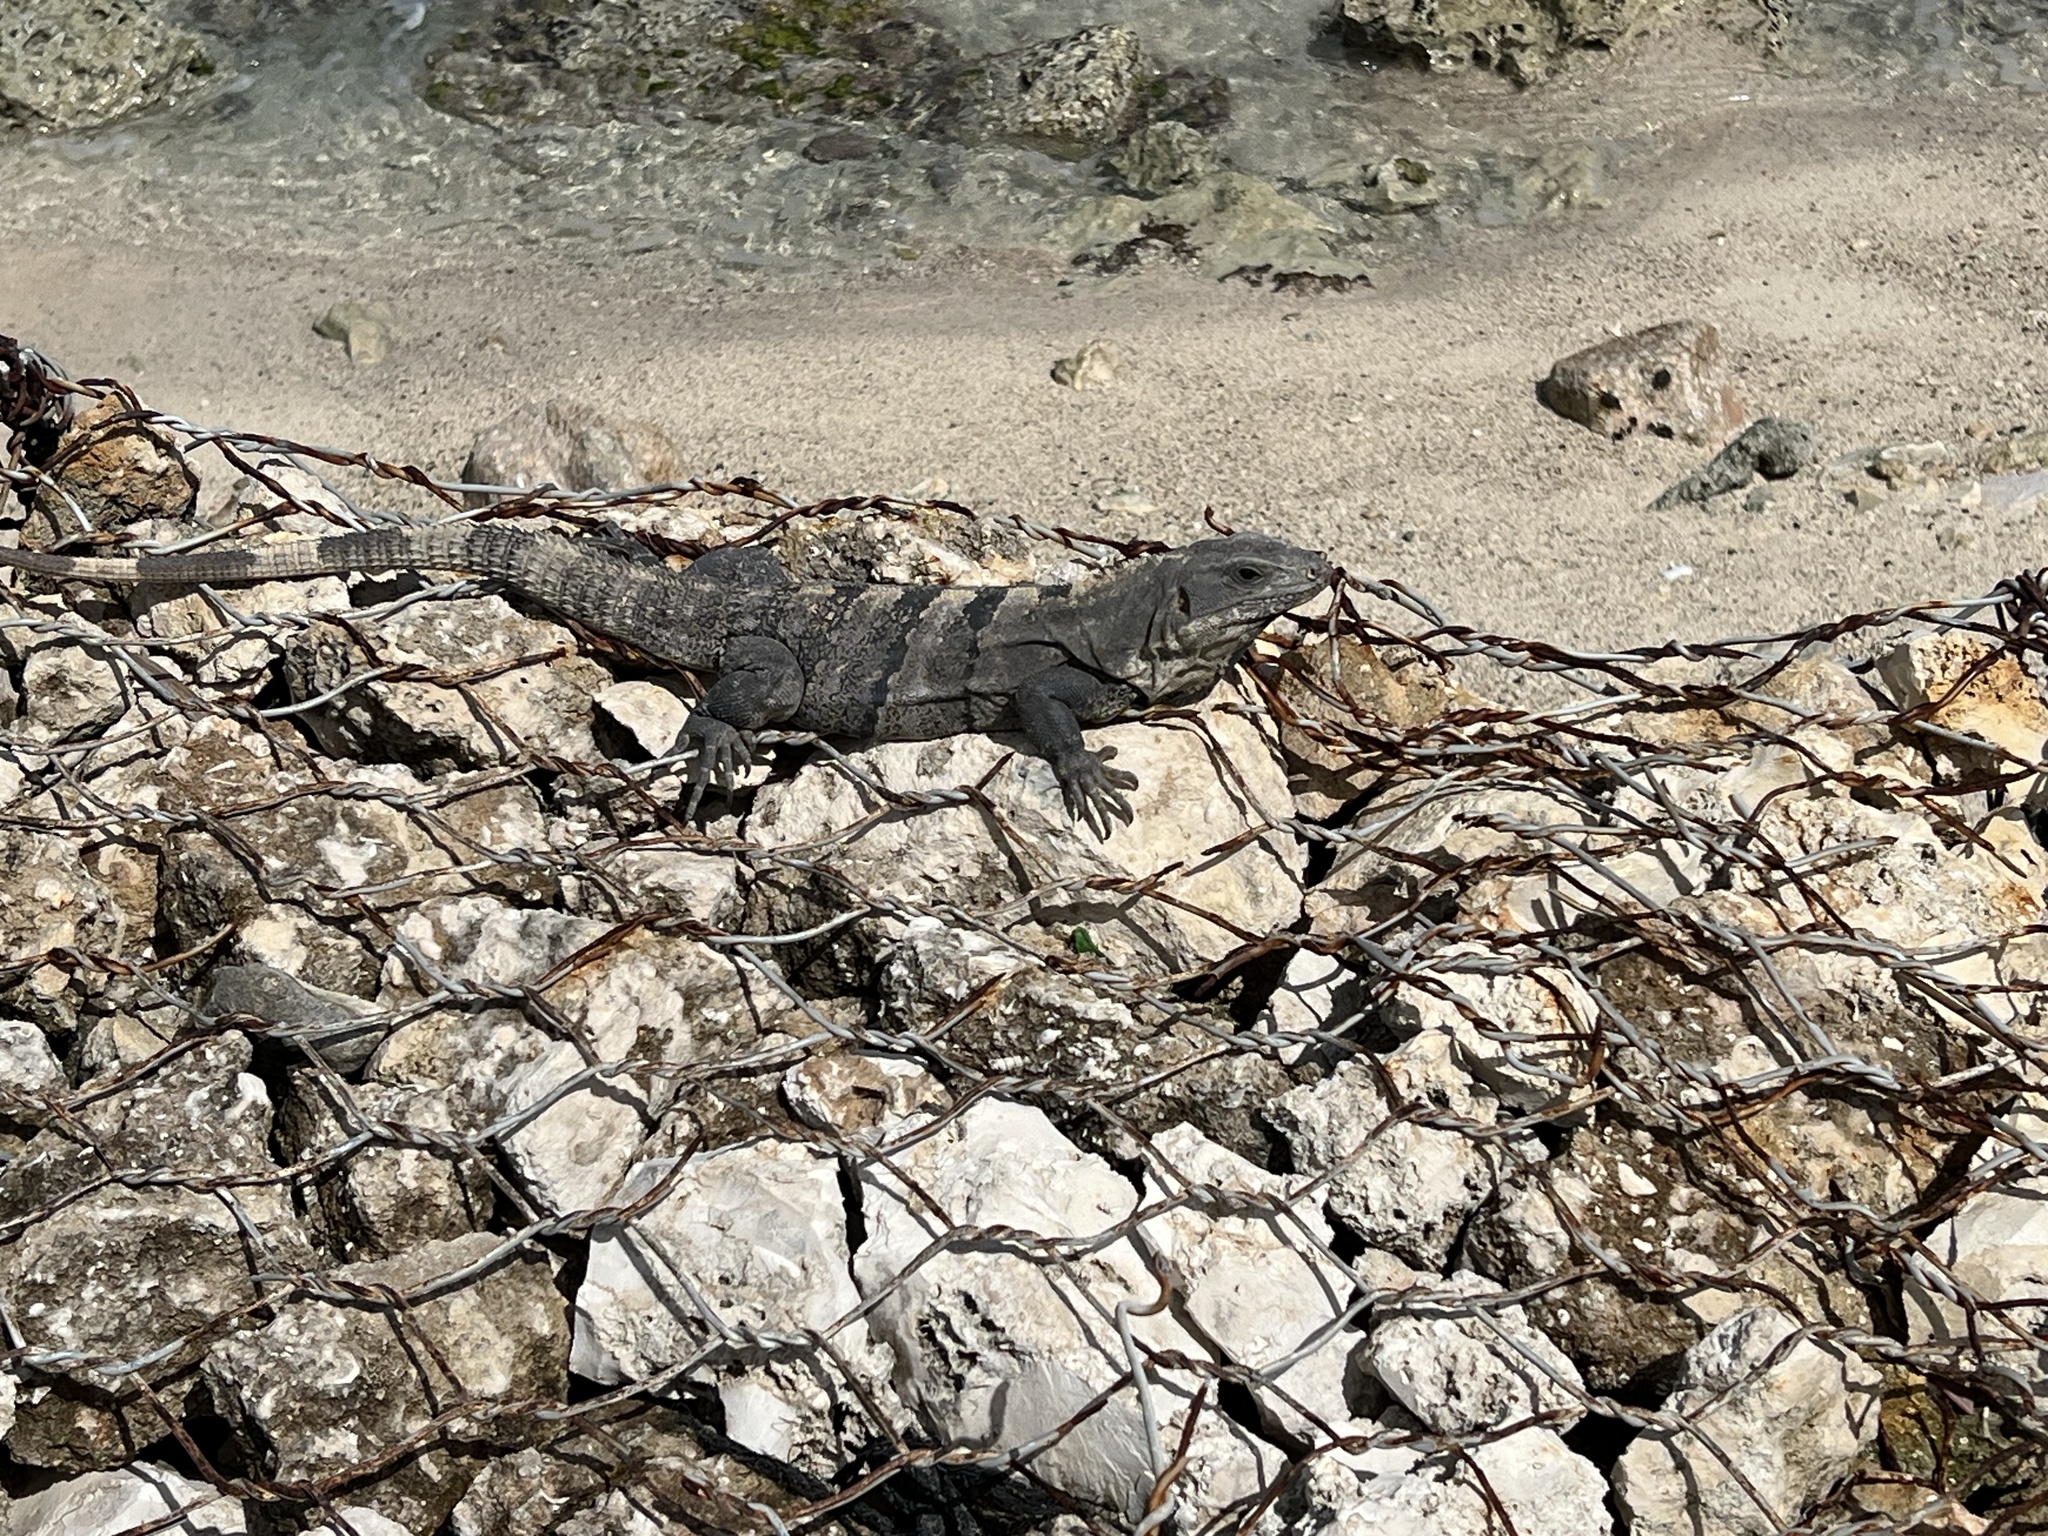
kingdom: Animalia
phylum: Chordata
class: Squamata
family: Iguanidae
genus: Ctenosaura
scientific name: Ctenosaura similis
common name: Black spiny-tailed iguana
